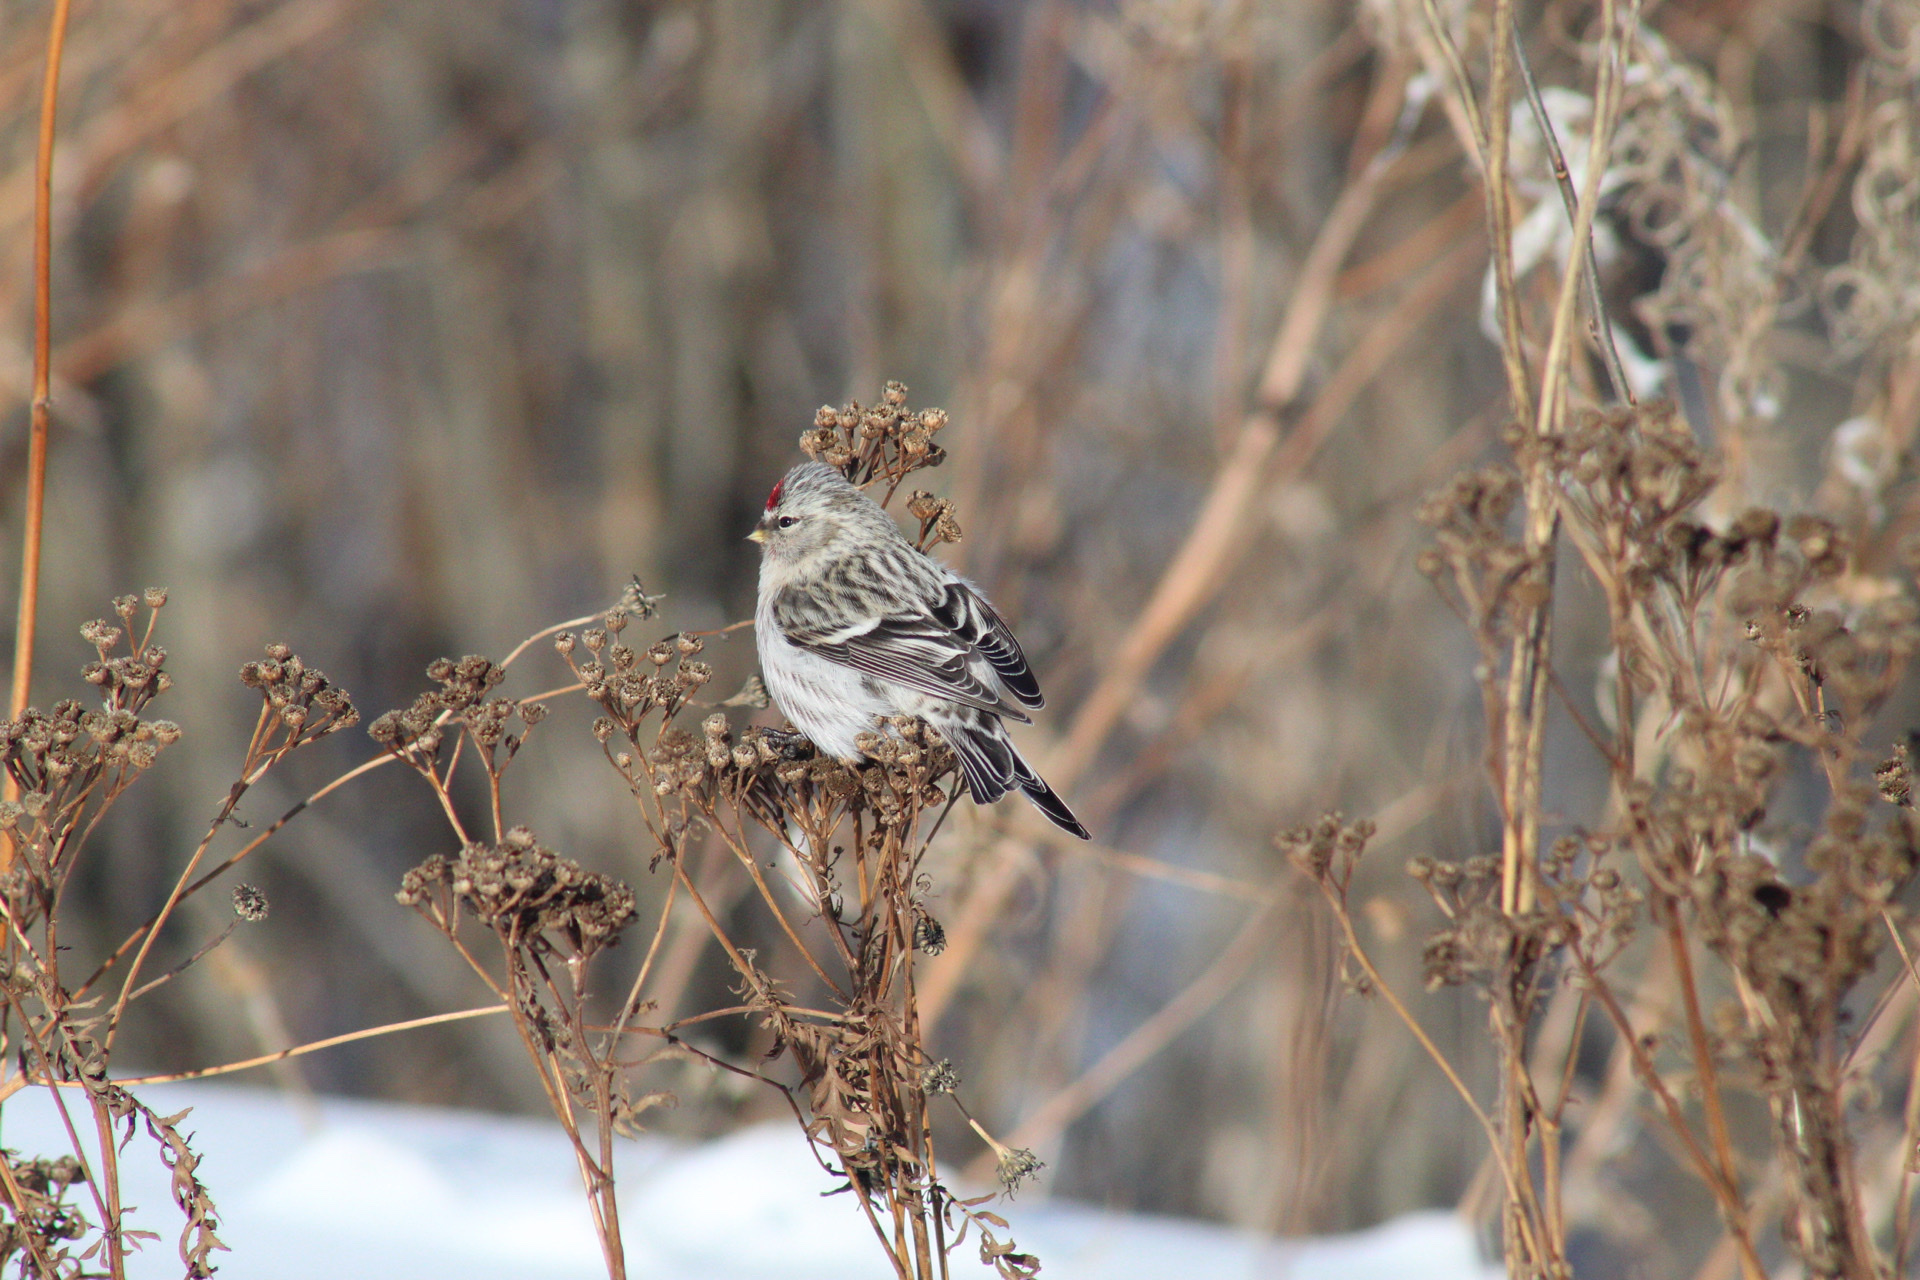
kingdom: Animalia
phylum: Chordata
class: Aves
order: Passeriformes
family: Fringillidae
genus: Acanthis
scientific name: Acanthis flammea
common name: Common redpoll
